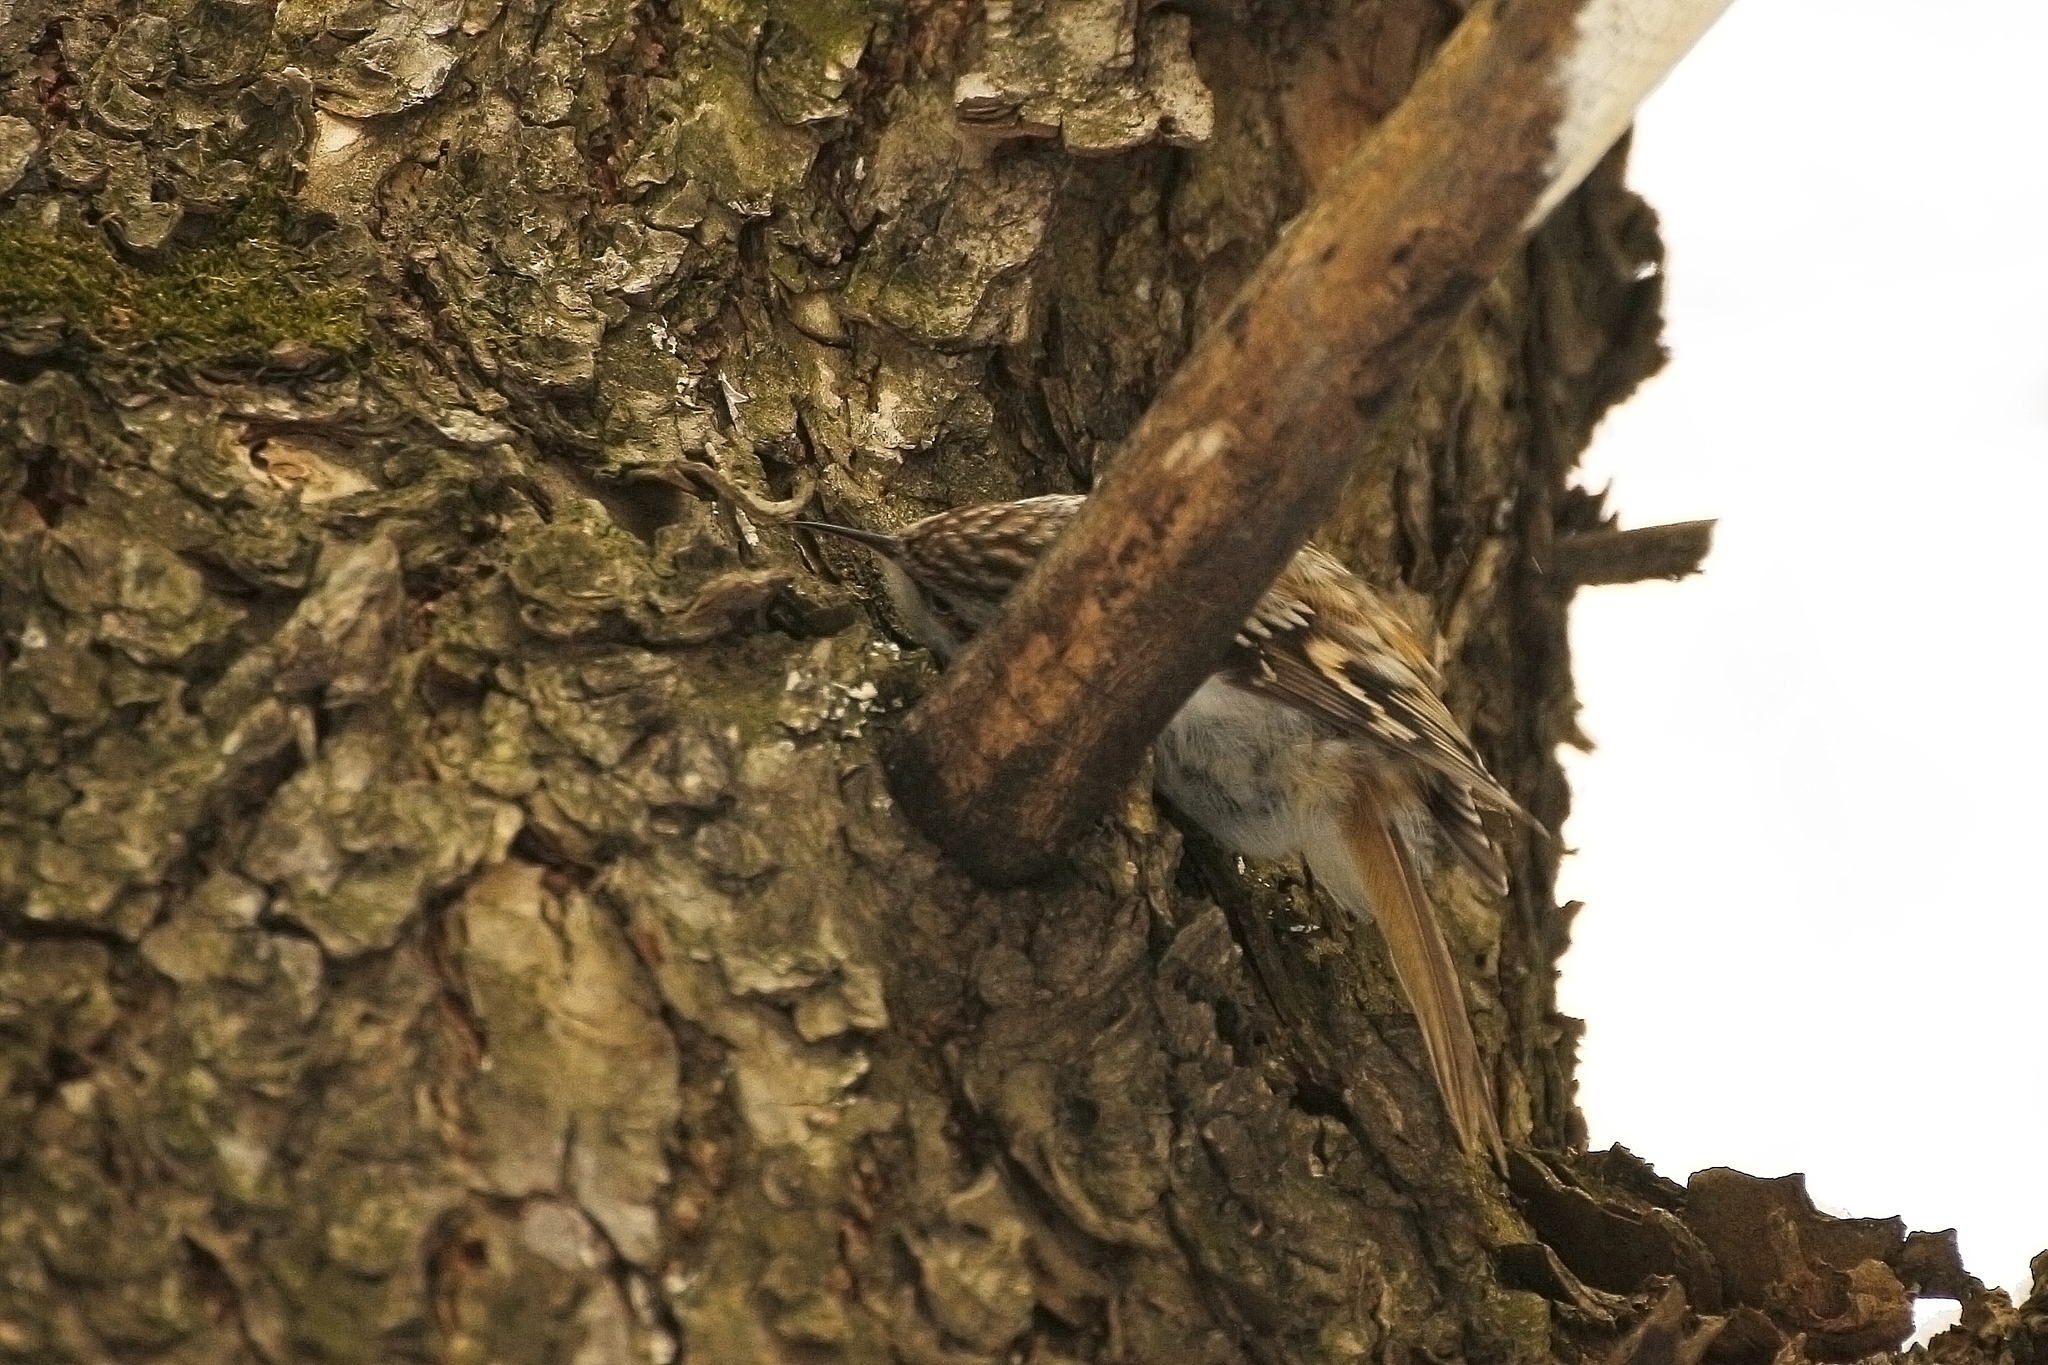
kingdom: Animalia
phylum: Chordata
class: Aves
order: Passeriformes
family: Certhiidae
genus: Certhia
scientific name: Certhia familiaris
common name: Eurasian treecreeper
